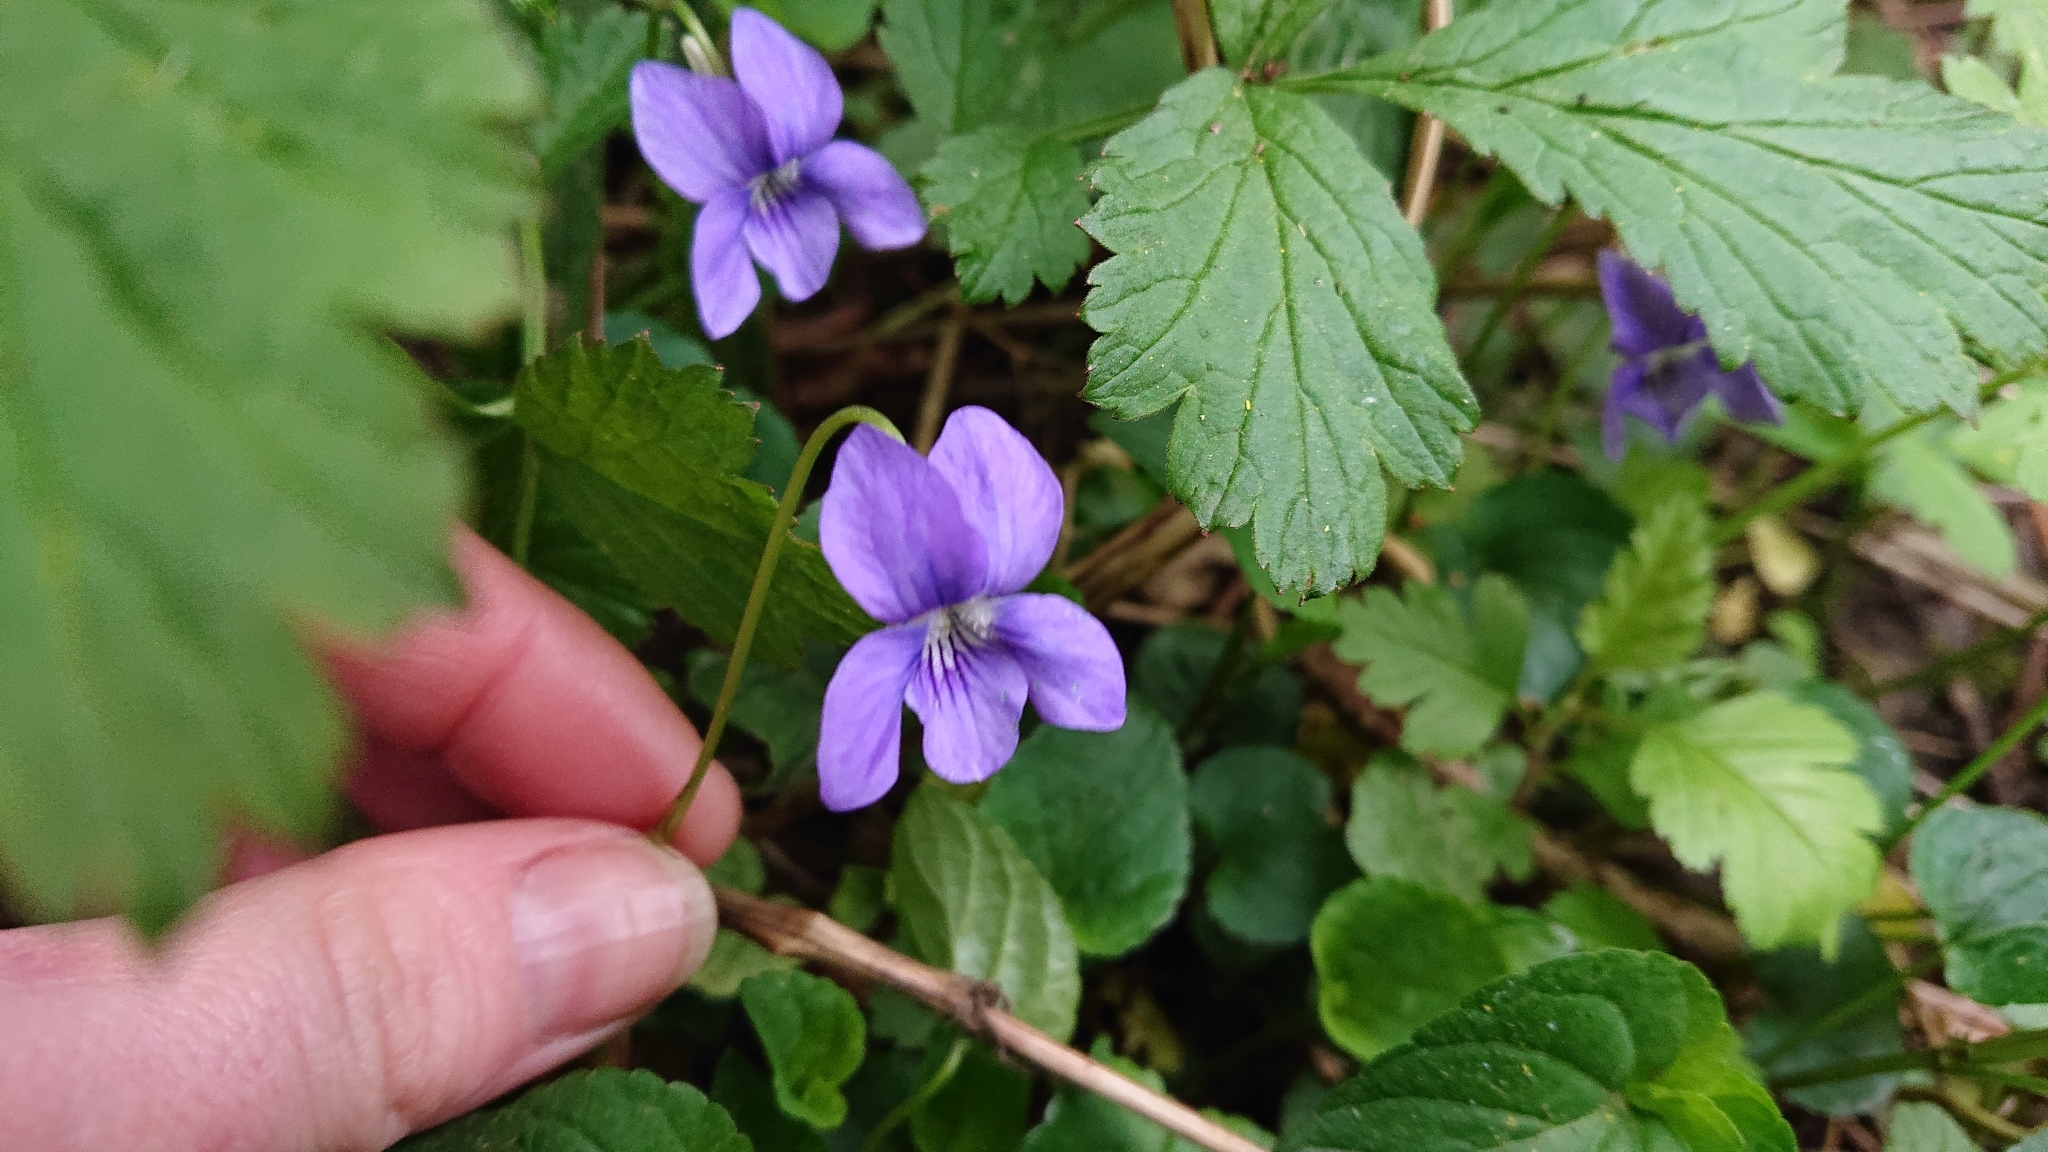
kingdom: Plantae
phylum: Tracheophyta
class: Magnoliopsida
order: Malpighiales
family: Violaceae
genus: Viola
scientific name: Viola riviniana
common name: Common dog-violet
